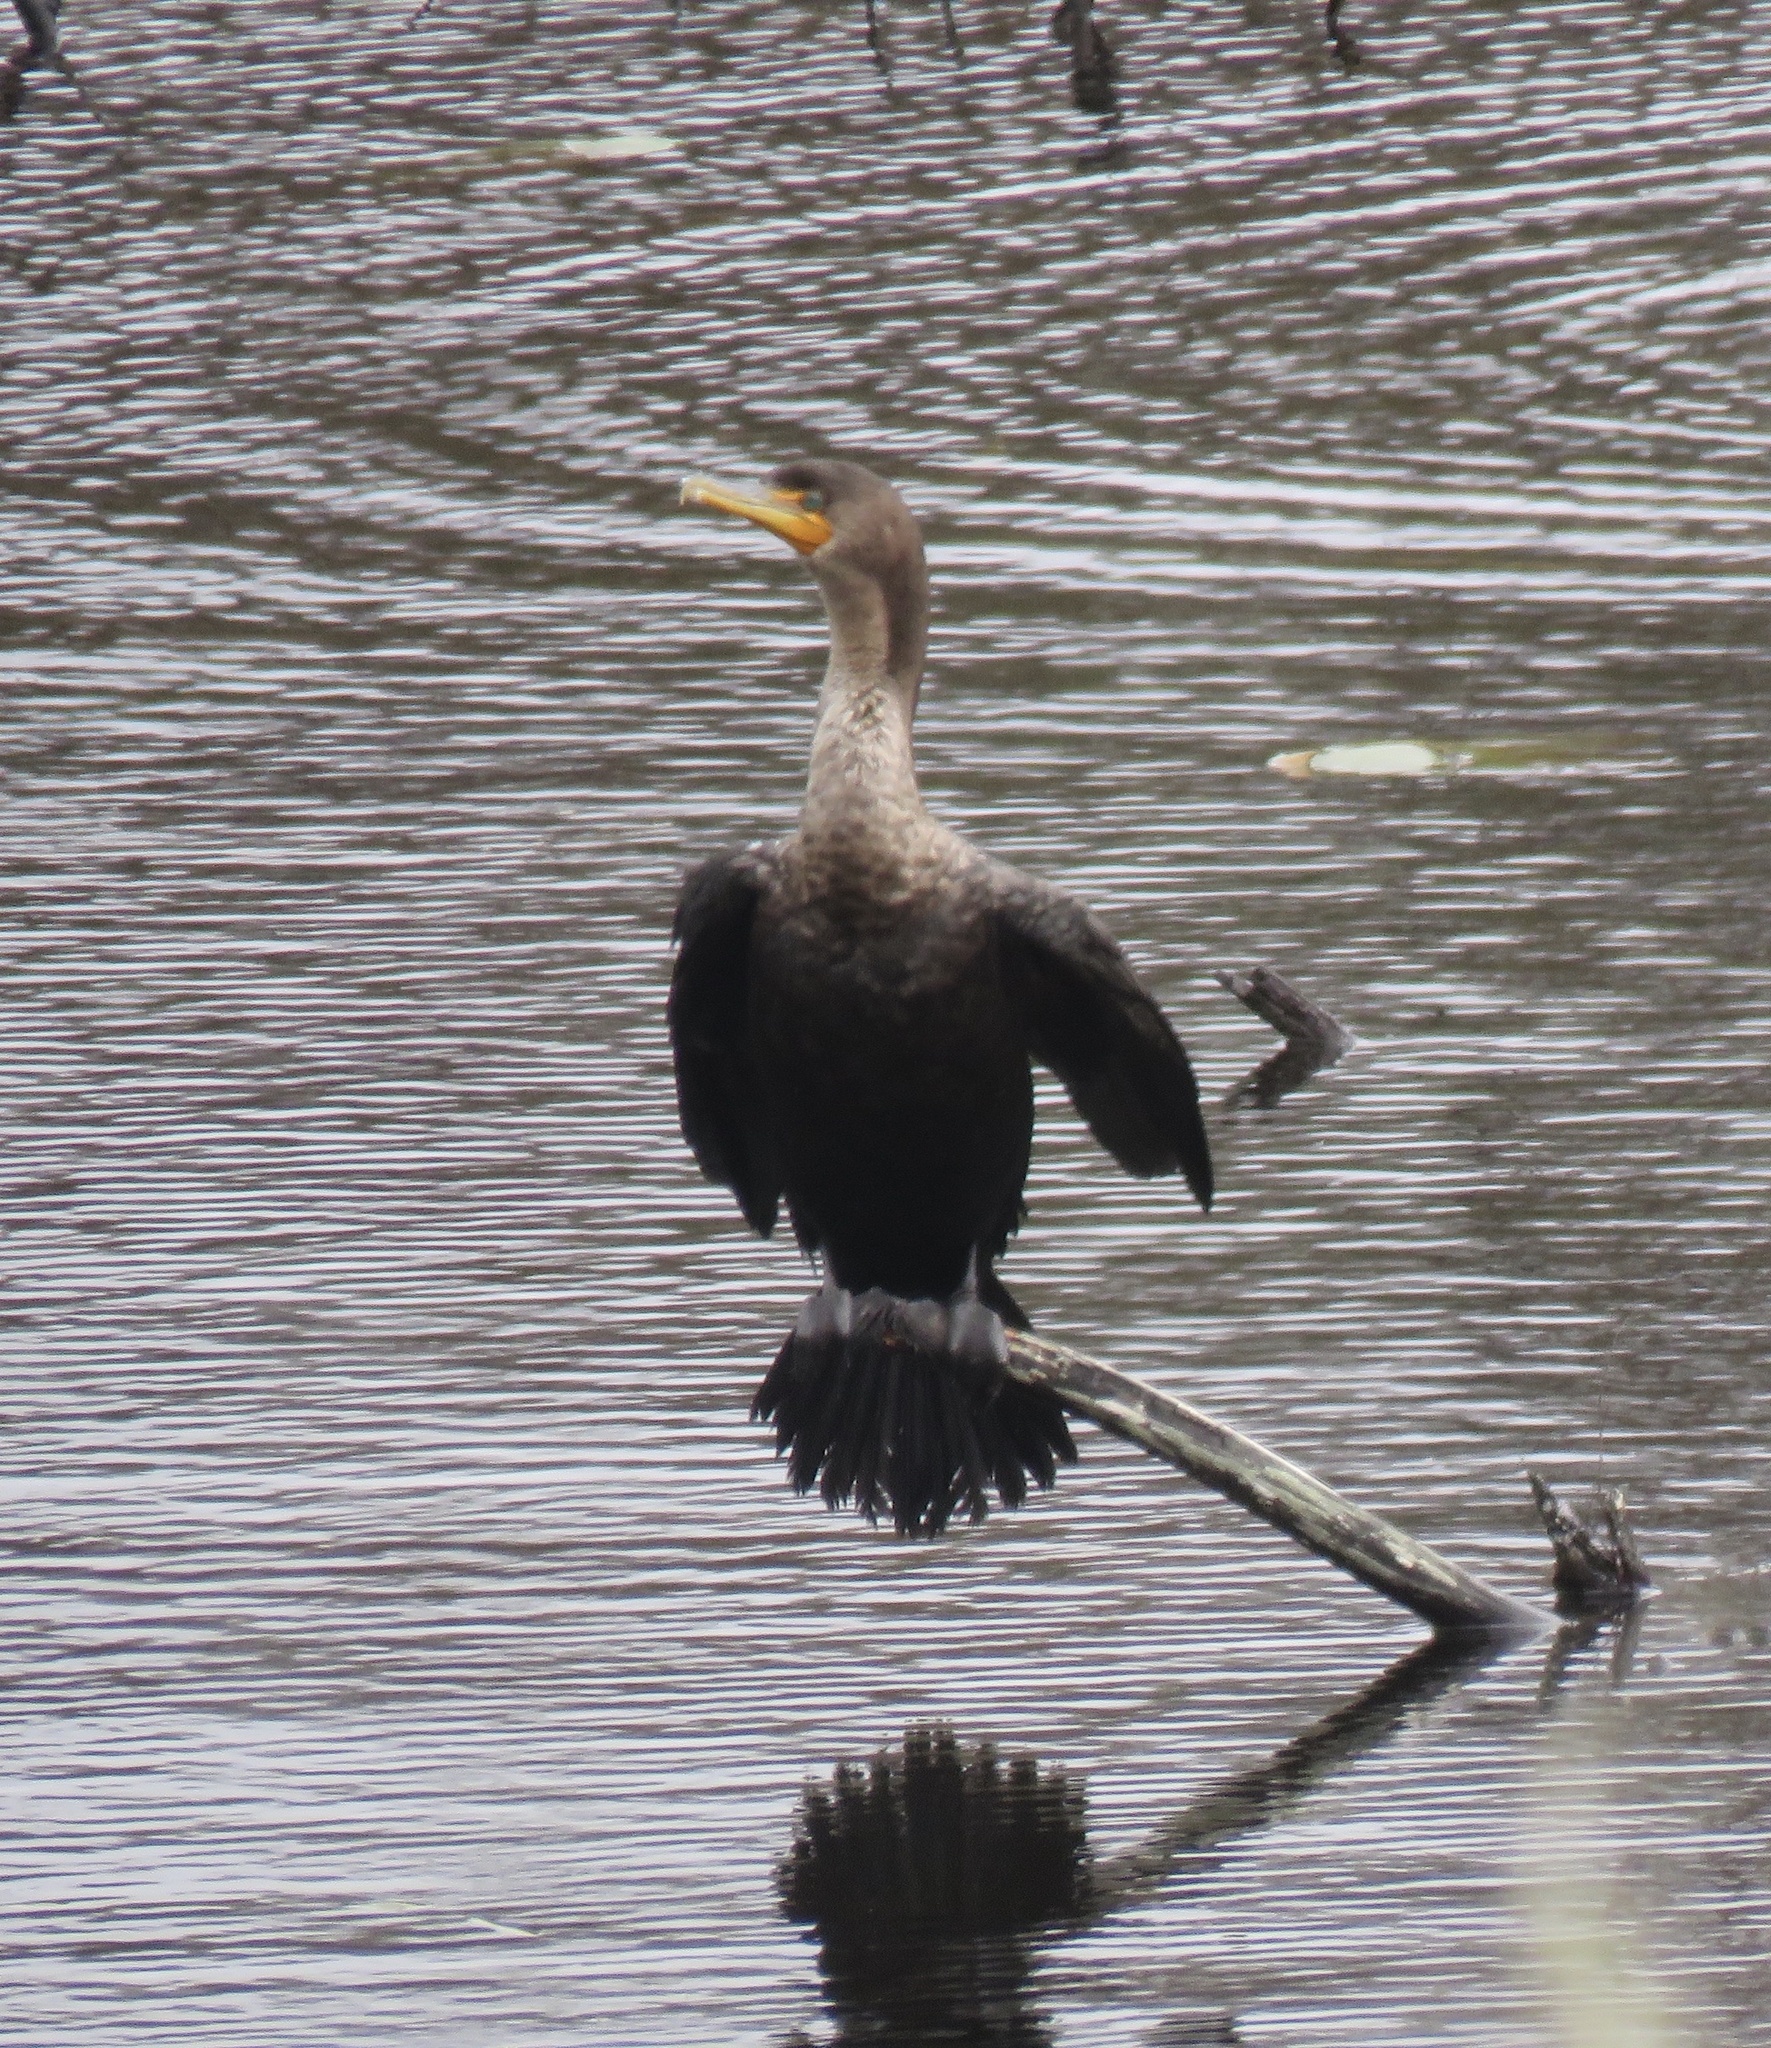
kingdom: Animalia
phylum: Chordata
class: Aves
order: Suliformes
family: Phalacrocoracidae
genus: Phalacrocorax
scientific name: Phalacrocorax auritus
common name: Double-crested cormorant
